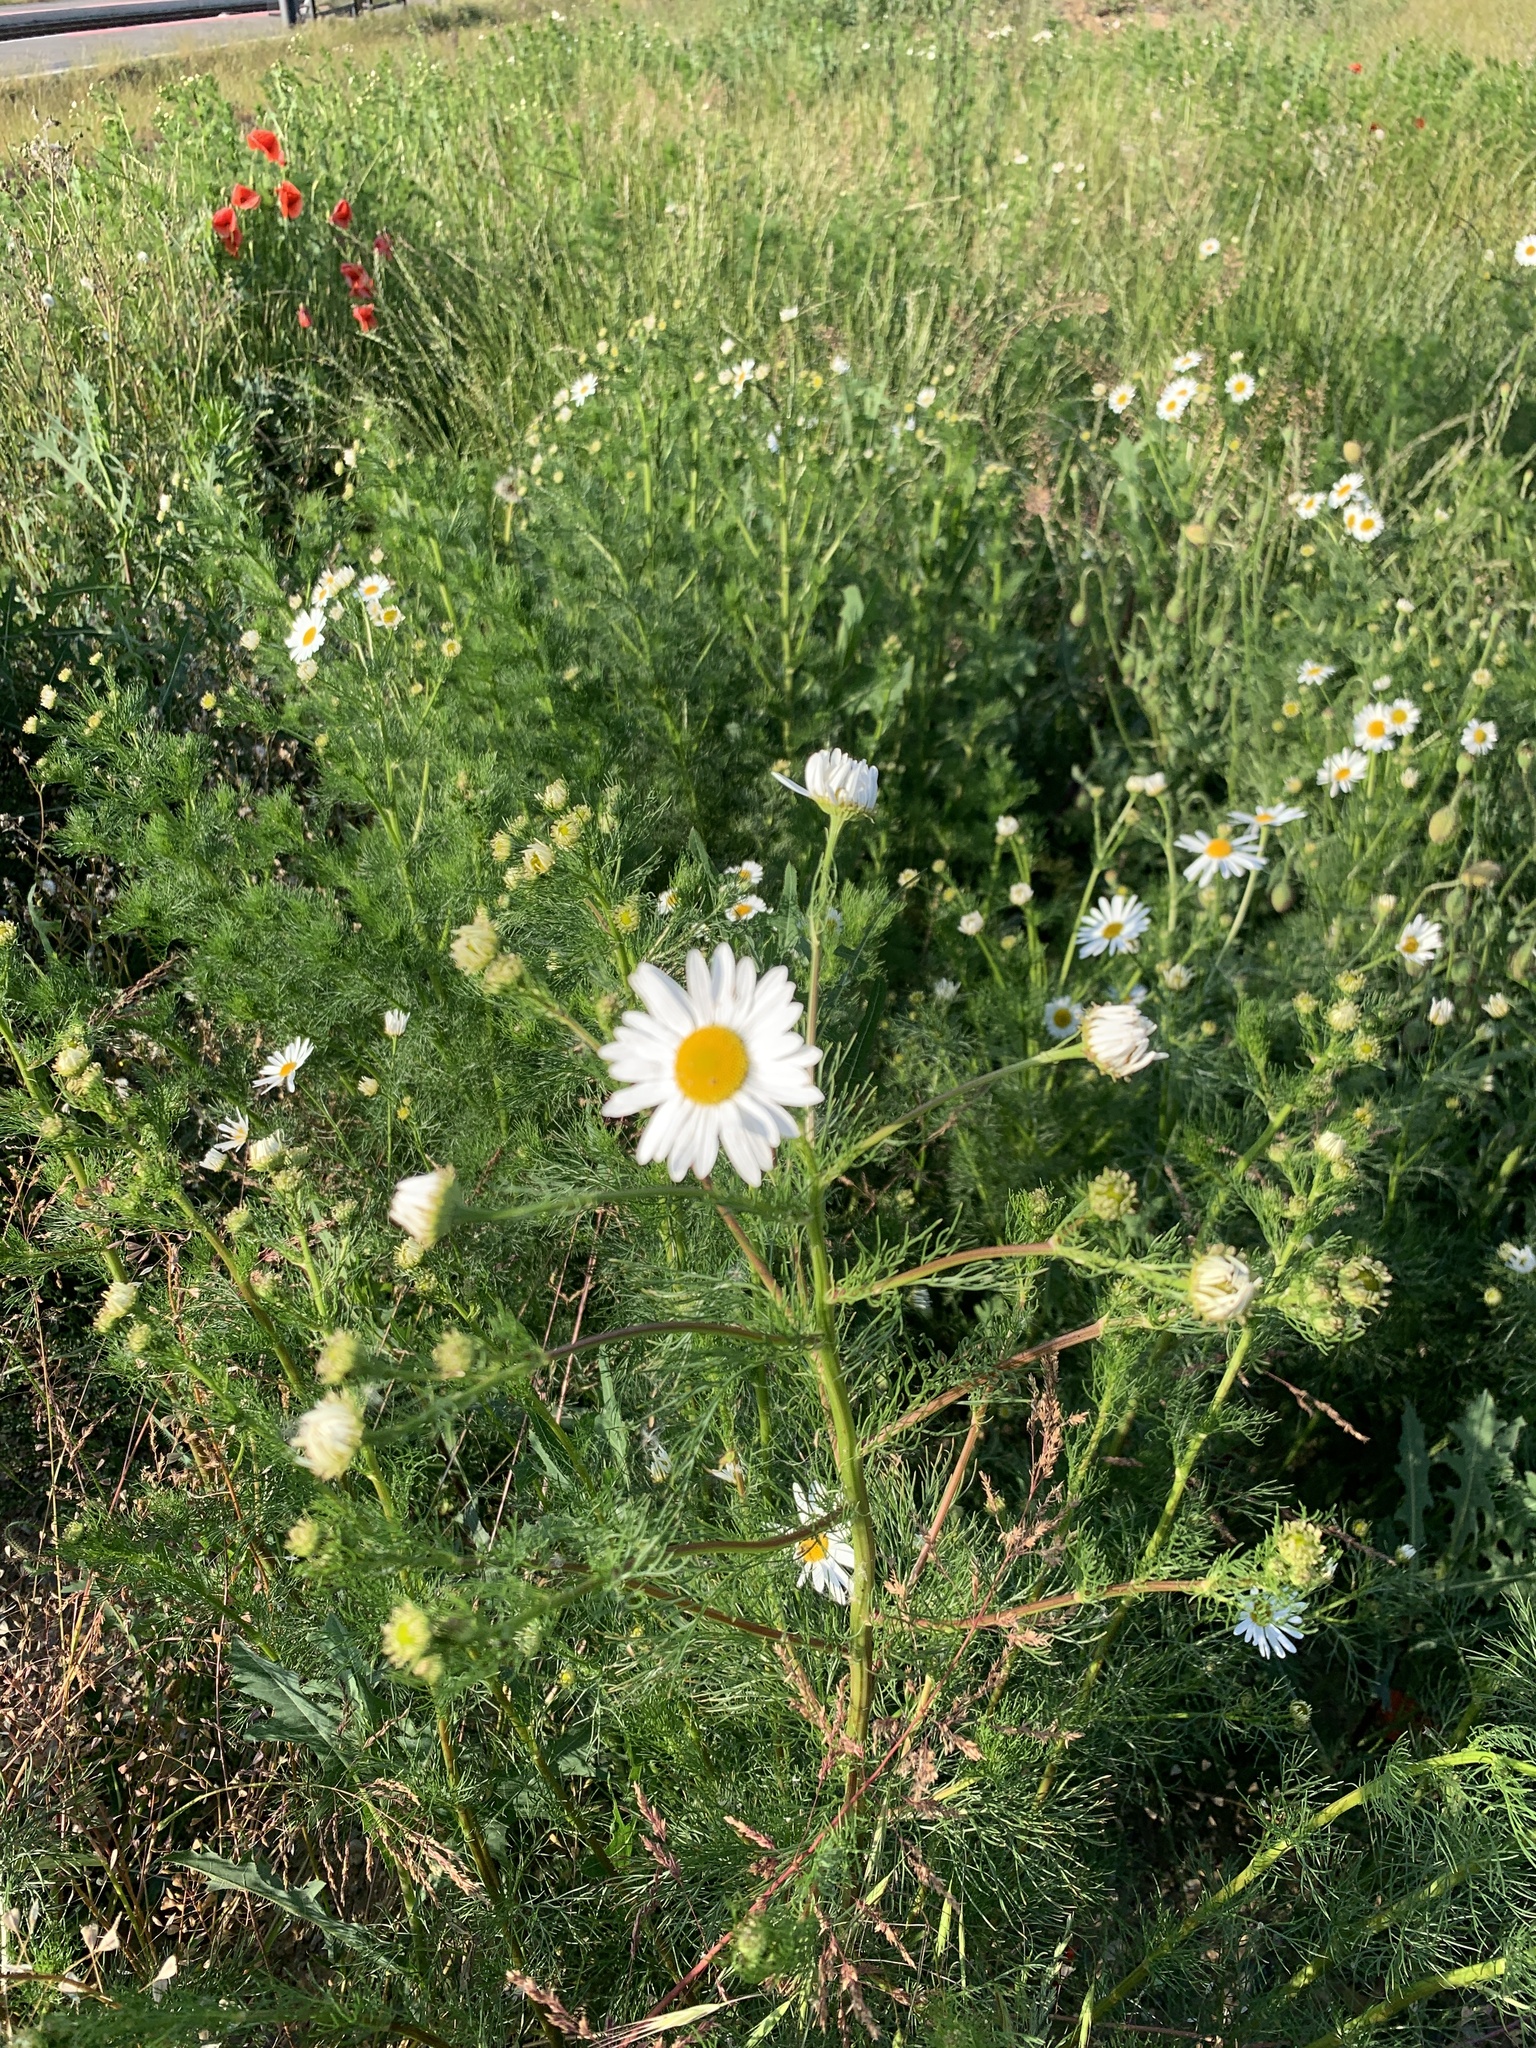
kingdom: Plantae
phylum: Tracheophyta
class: Magnoliopsida
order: Asterales
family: Asteraceae
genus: Tripleurospermum
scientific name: Tripleurospermum inodorum
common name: Scentless mayweed
